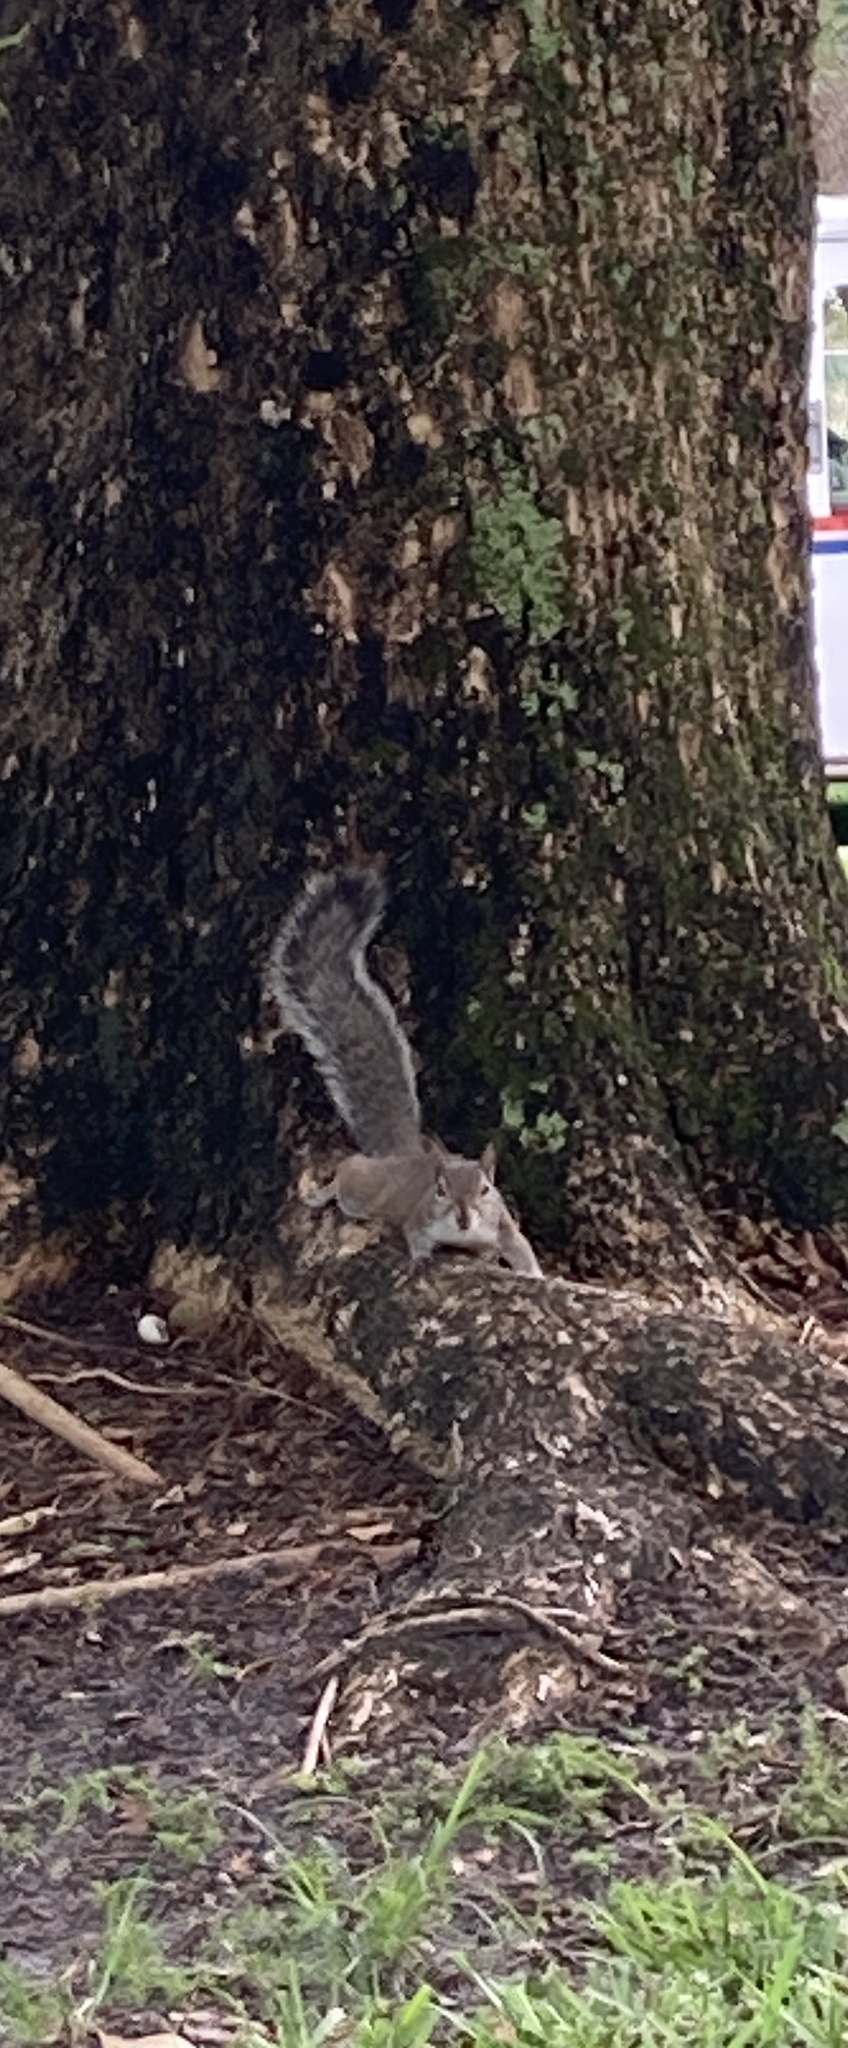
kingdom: Animalia
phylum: Chordata
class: Mammalia
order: Rodentia
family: Sciuridae
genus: Sciurus
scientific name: Sciurus carolinensis
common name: Eastern gray squirrel
